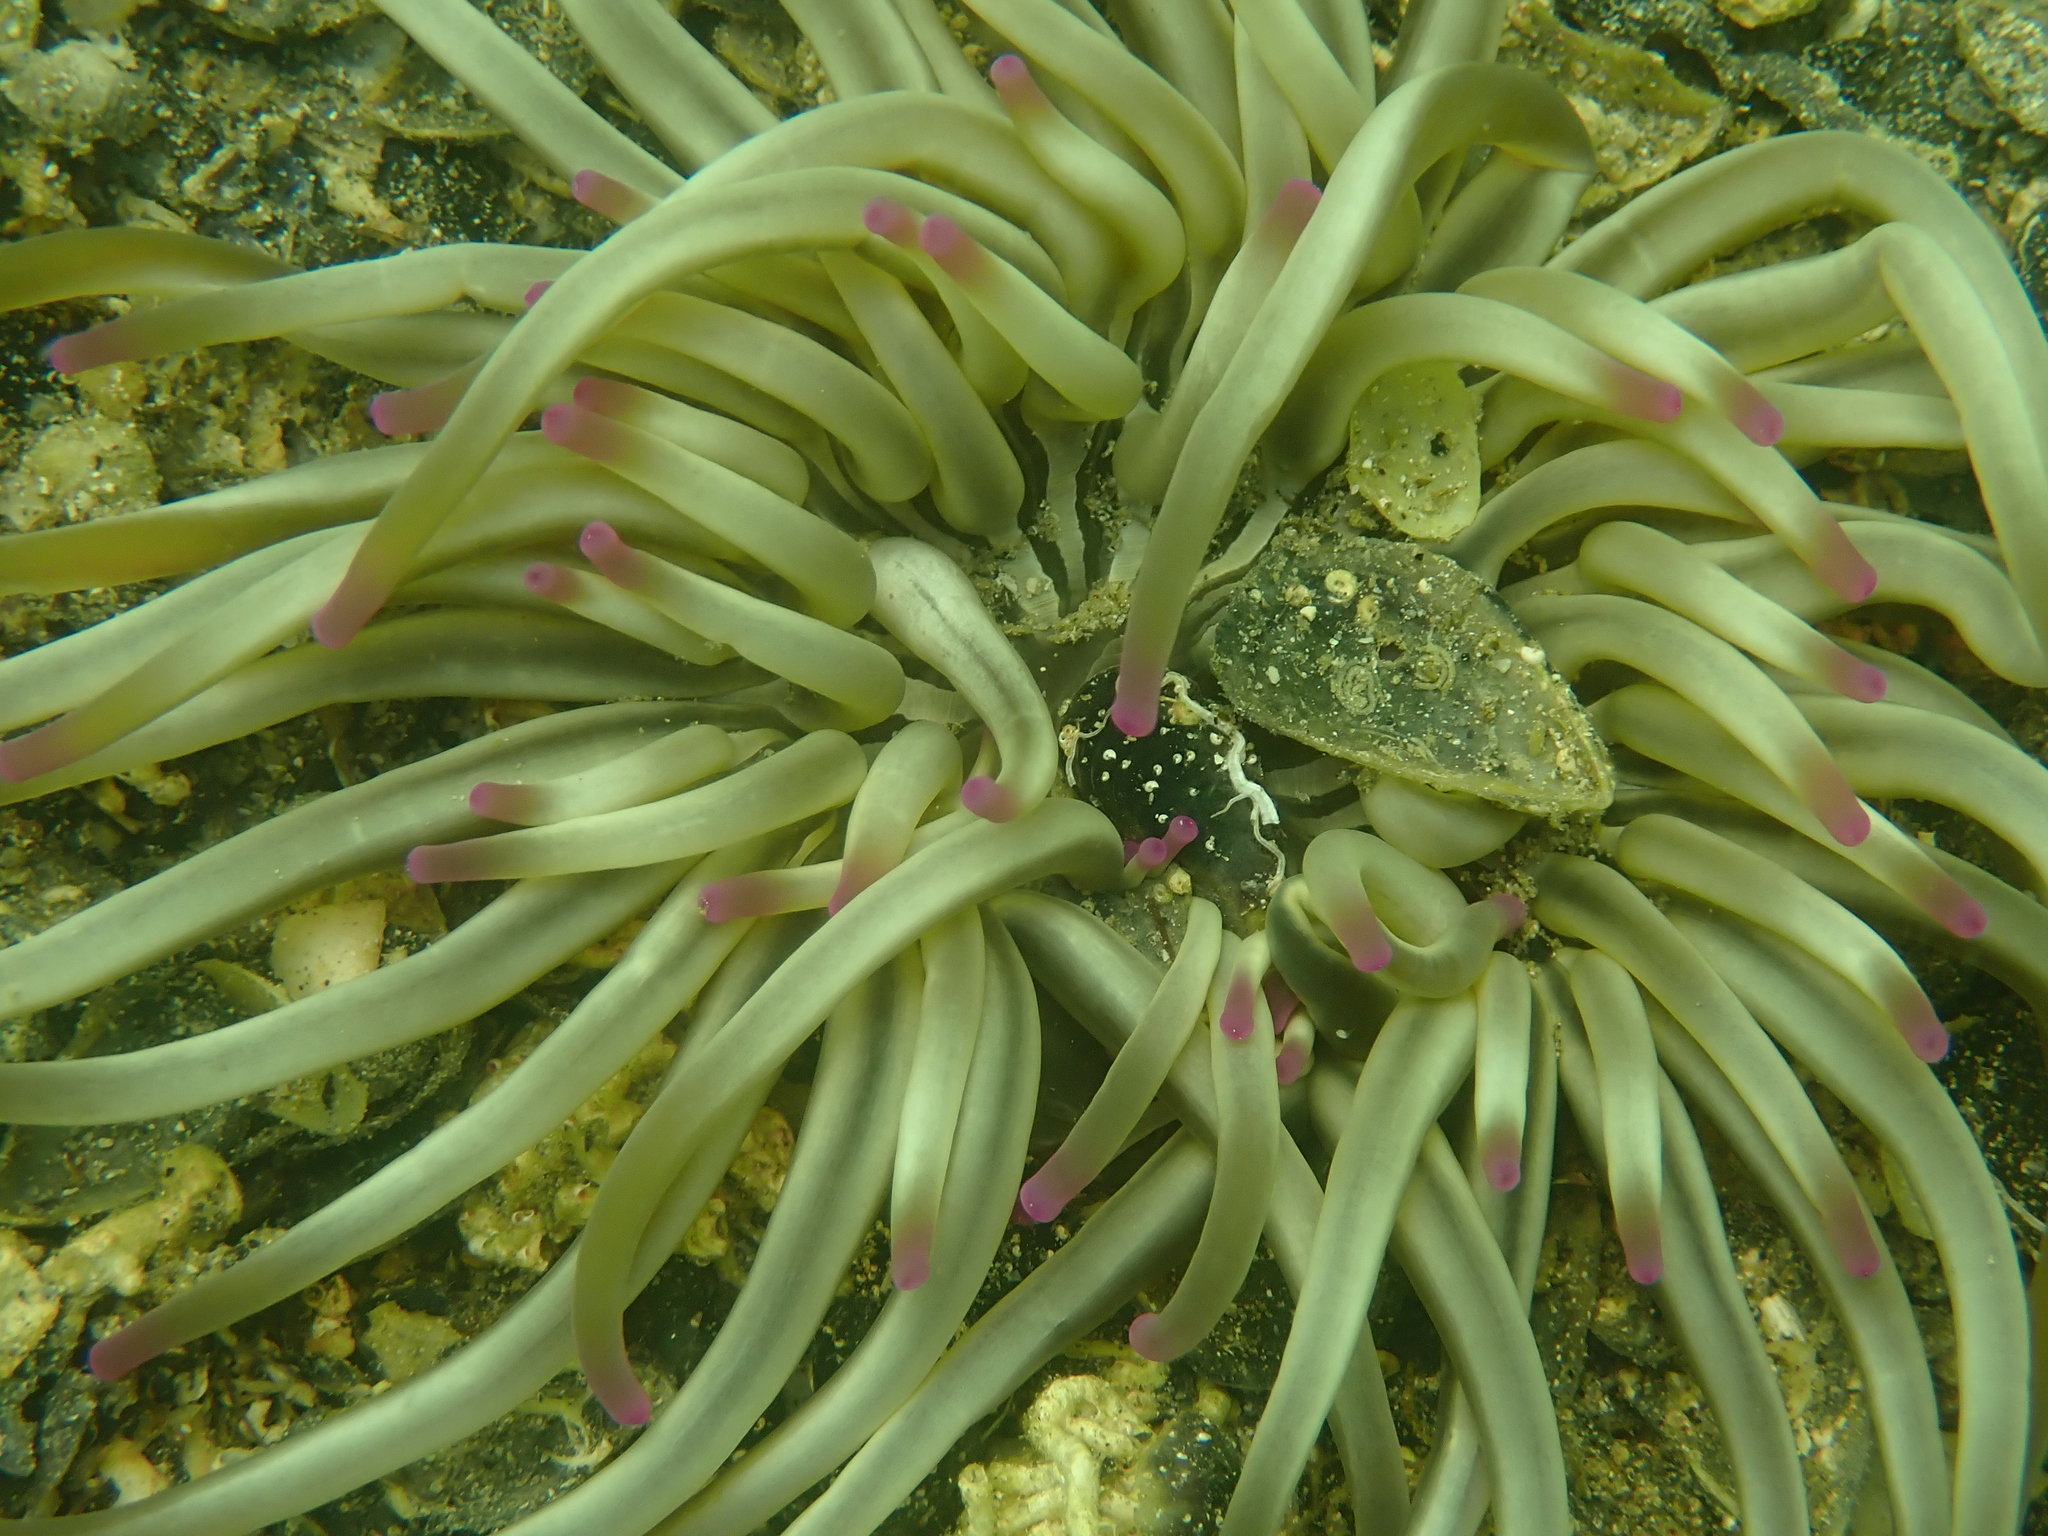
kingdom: Animalia
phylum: Cnidaria
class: Anthozoa
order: Actiniaria
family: Actiniidae
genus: Condylactis
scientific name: Condylactis aurantiaca
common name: Golden anemone
